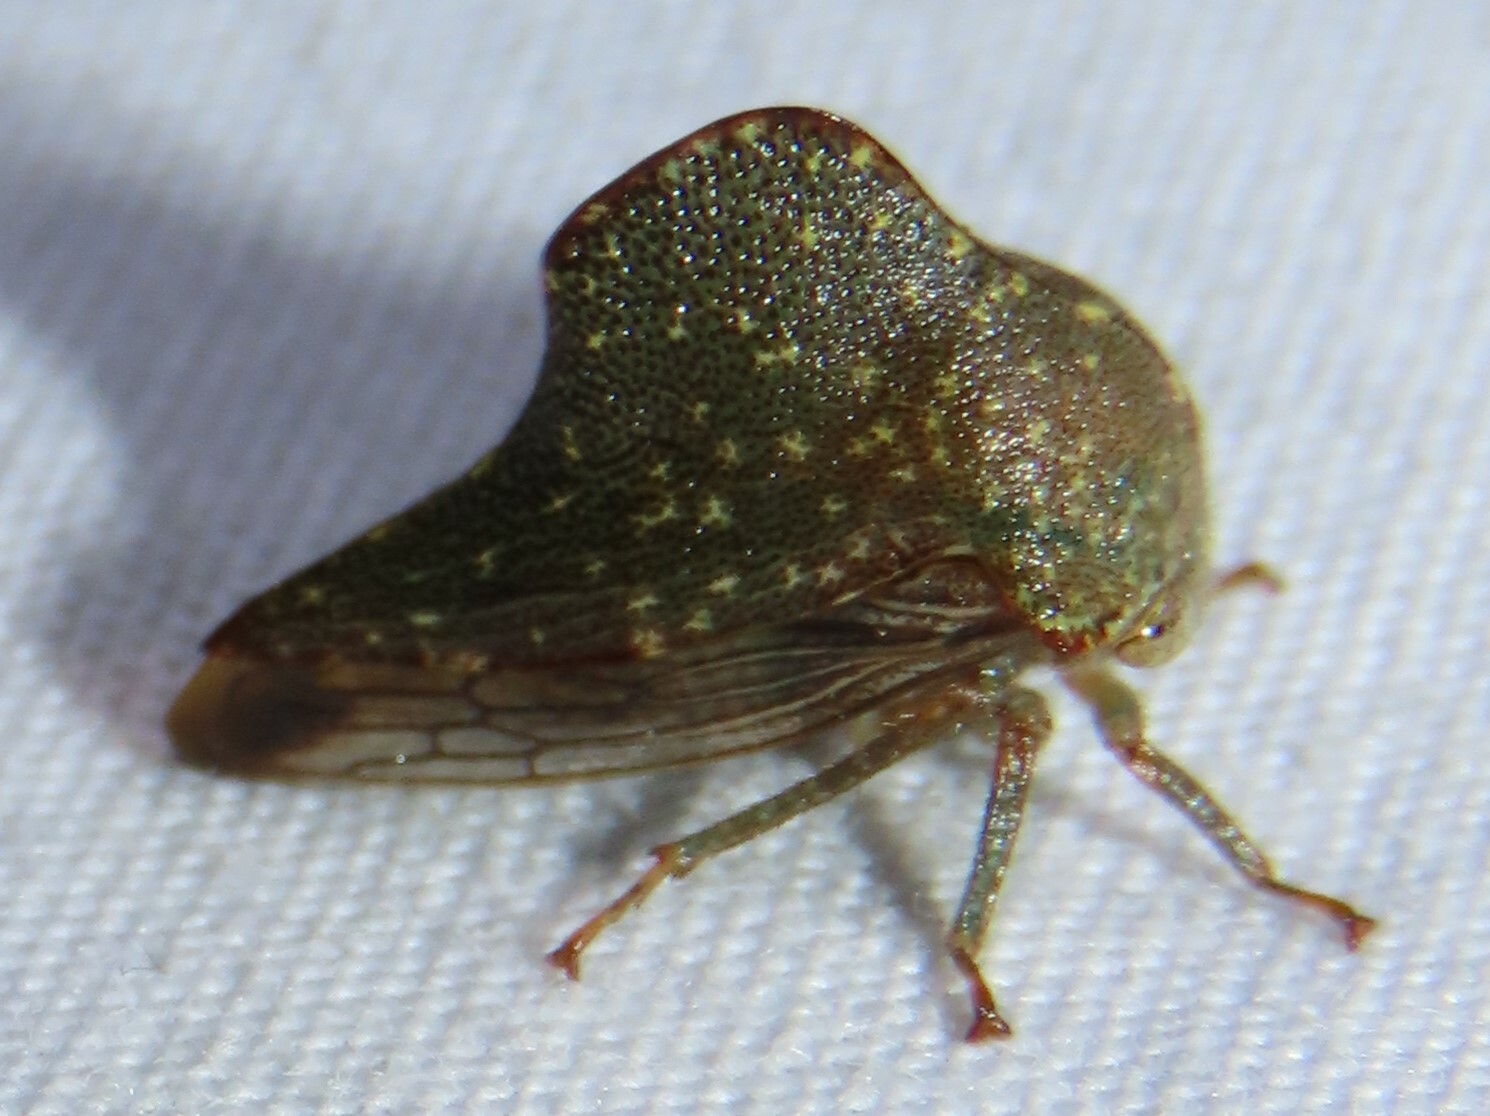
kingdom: Animalia
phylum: Arthropoda
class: Insecta
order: Hemiptera
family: Membracidae
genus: Telamona
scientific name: Telamona monticola
